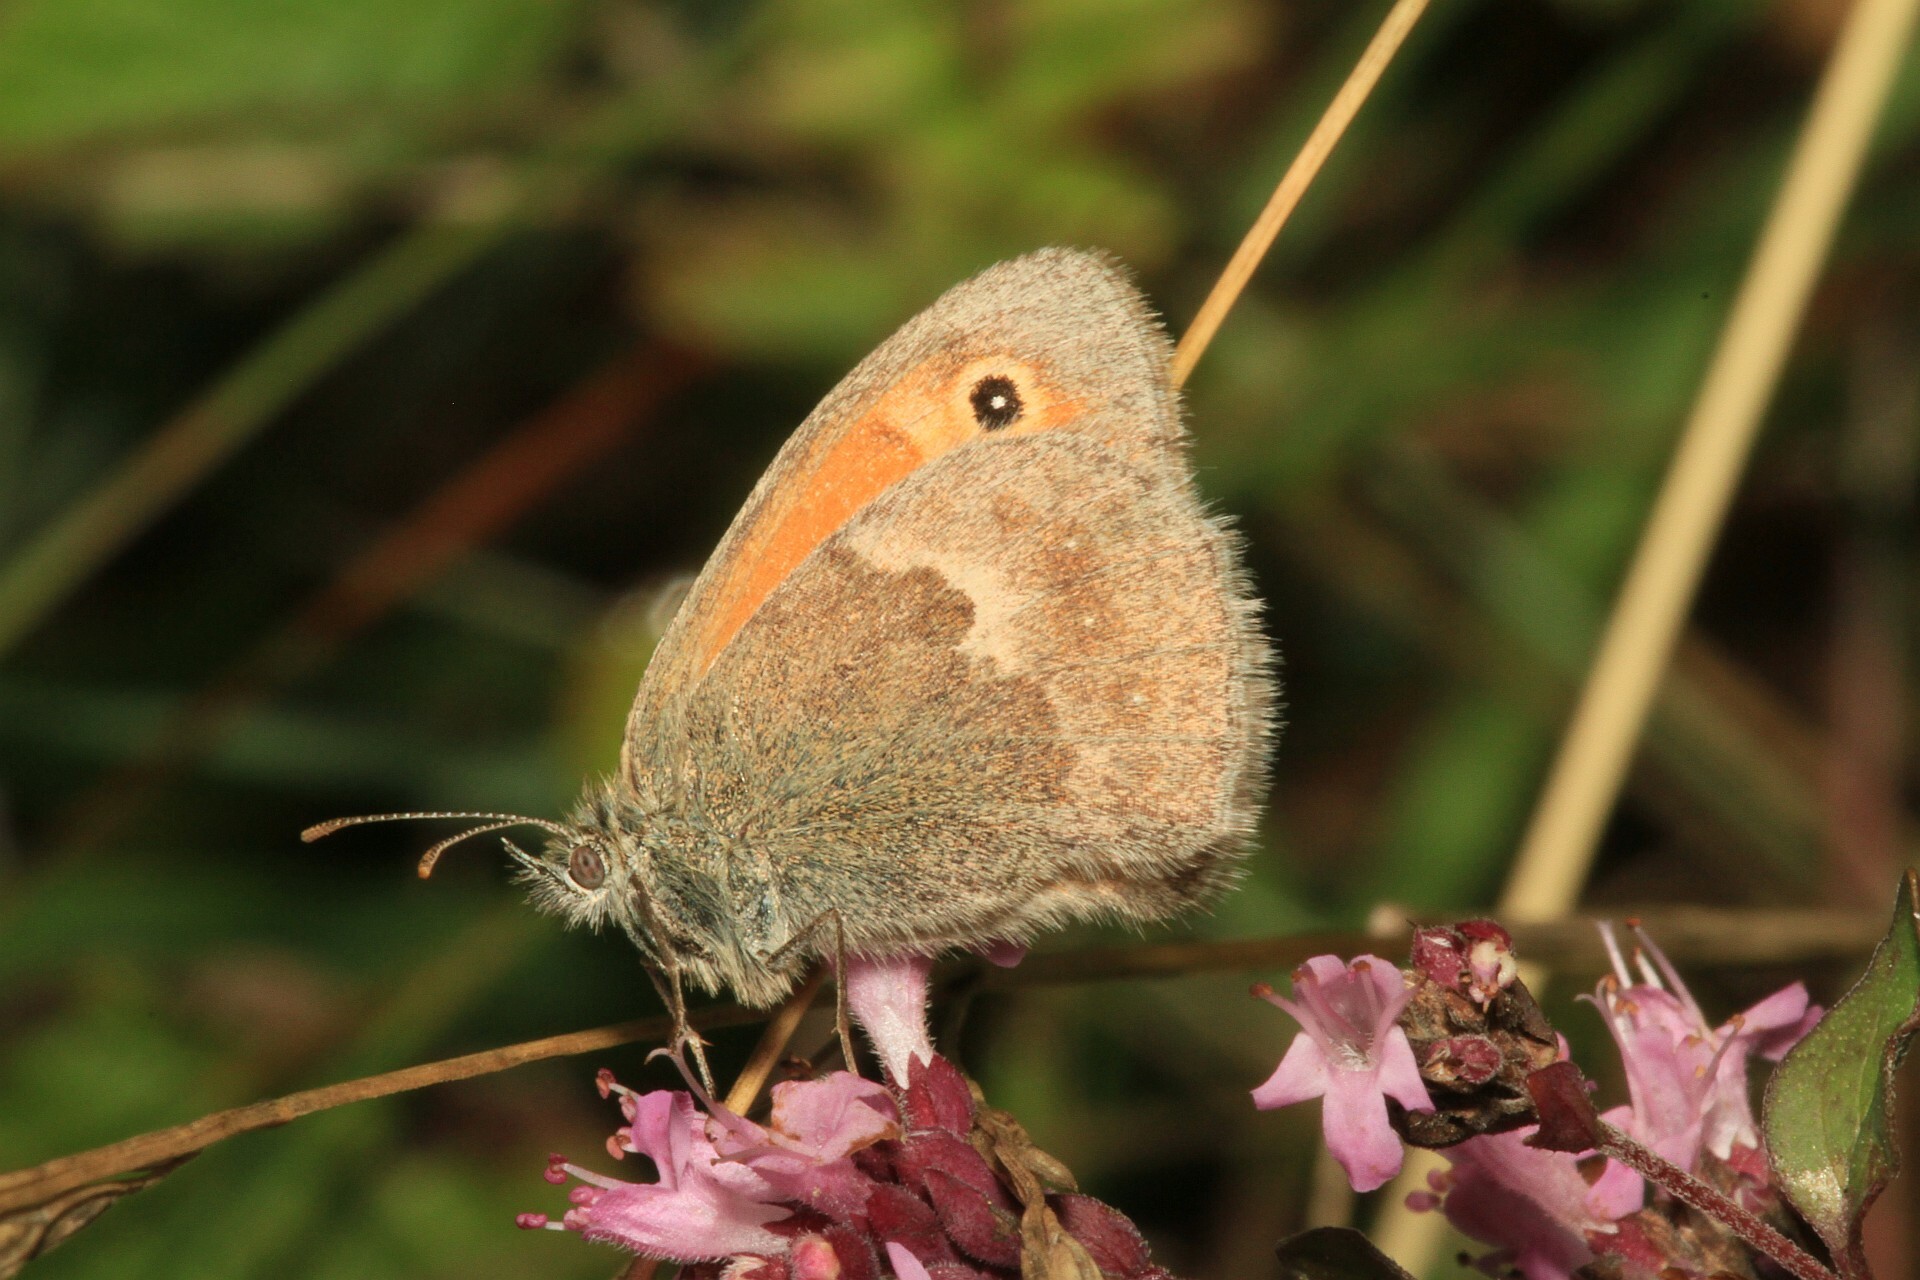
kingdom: Animalia
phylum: Arthropoda
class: Insecta
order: Lepidoptera
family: Nymphalidae
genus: Coenonympha
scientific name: Coenonympha pamphilus
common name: Small heath
